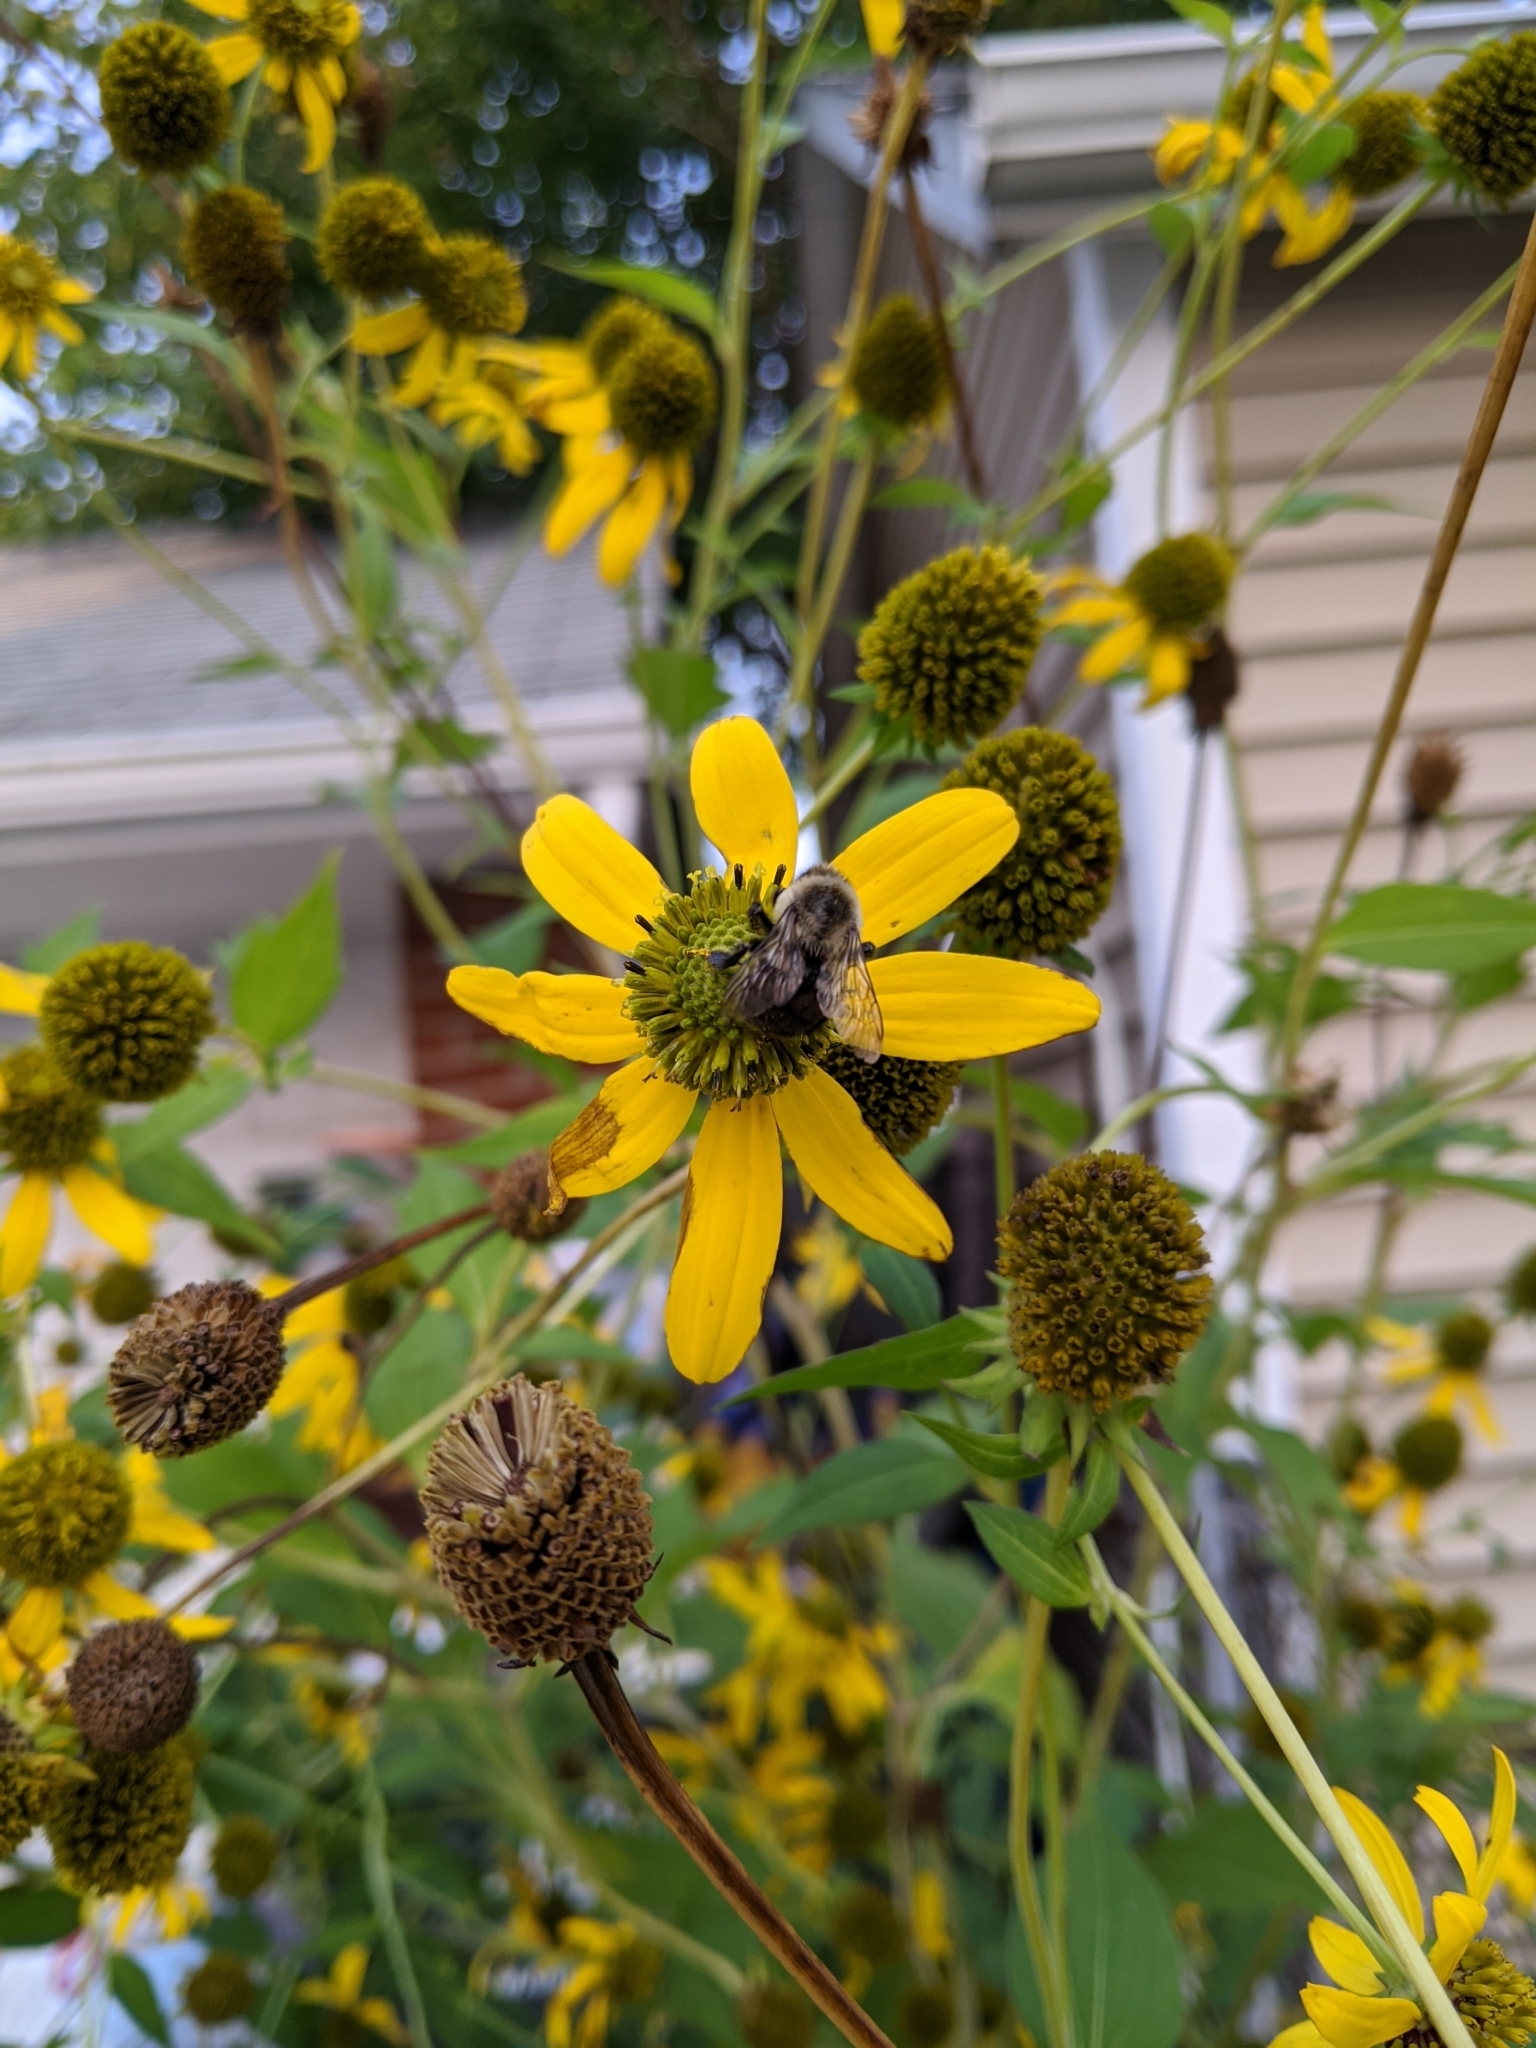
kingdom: Animalia
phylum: Arthropoda
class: Insecta
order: Hymenoptera
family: Apidae
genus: Bombus
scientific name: Bombus impatiens
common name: Common eastern bumble bee
